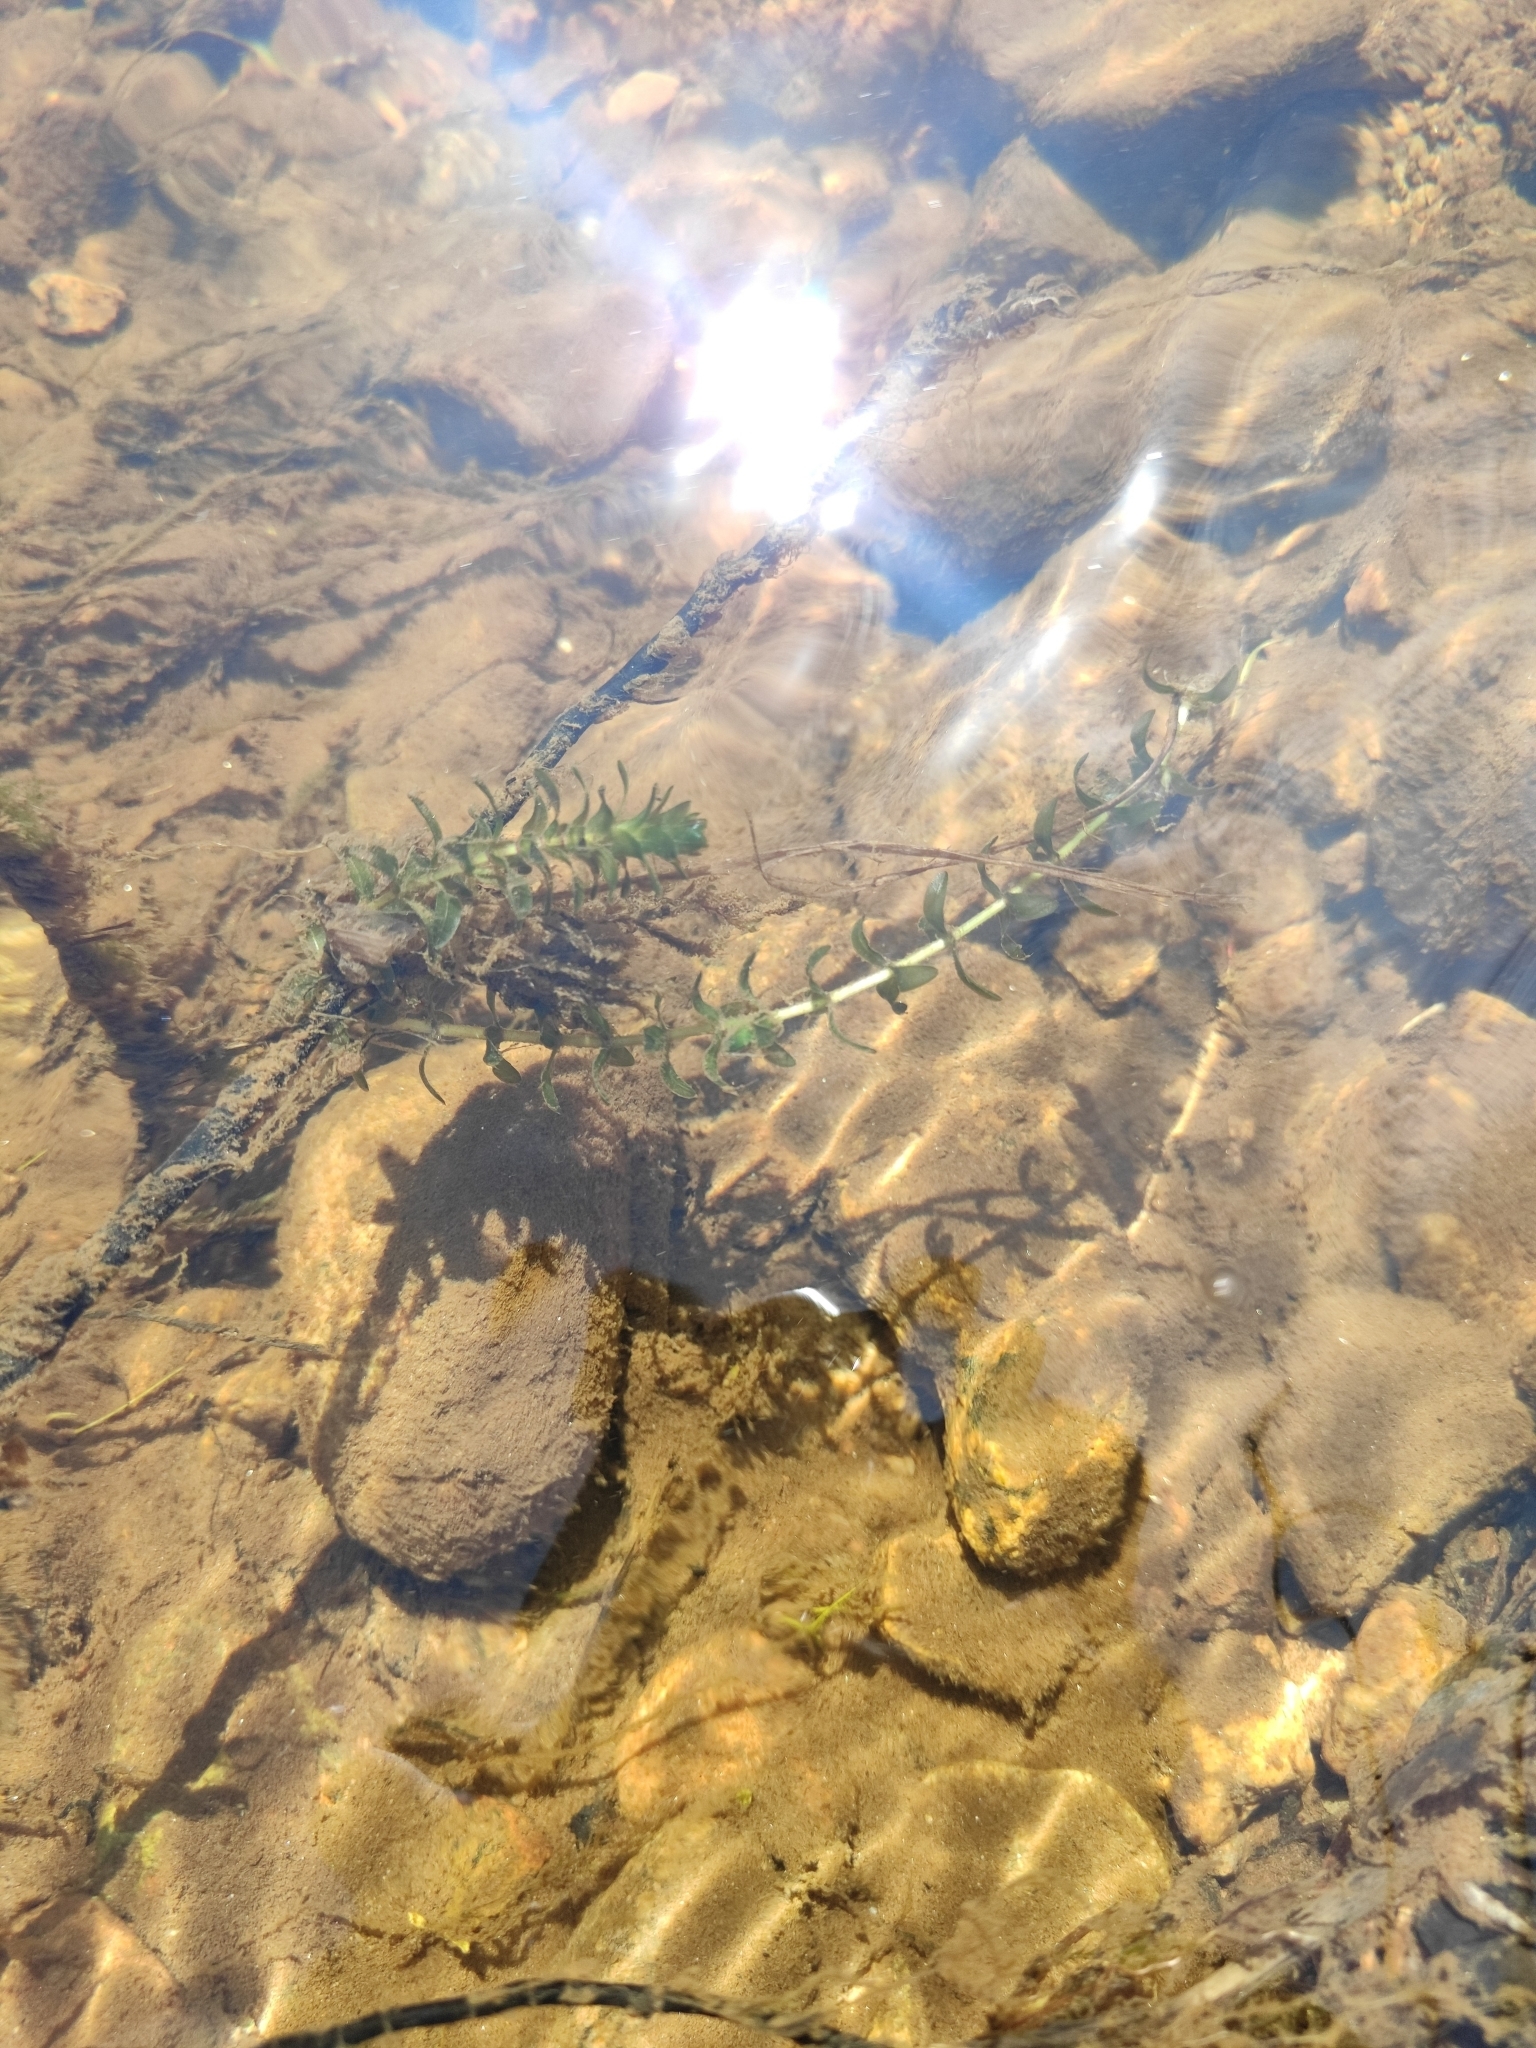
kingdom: Plantae
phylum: Tracheophyta
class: Liliopsida
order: Alismatales
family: Hydrocharitaceae
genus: Elodea
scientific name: Elodea canadensis
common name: Canadian waterweed
